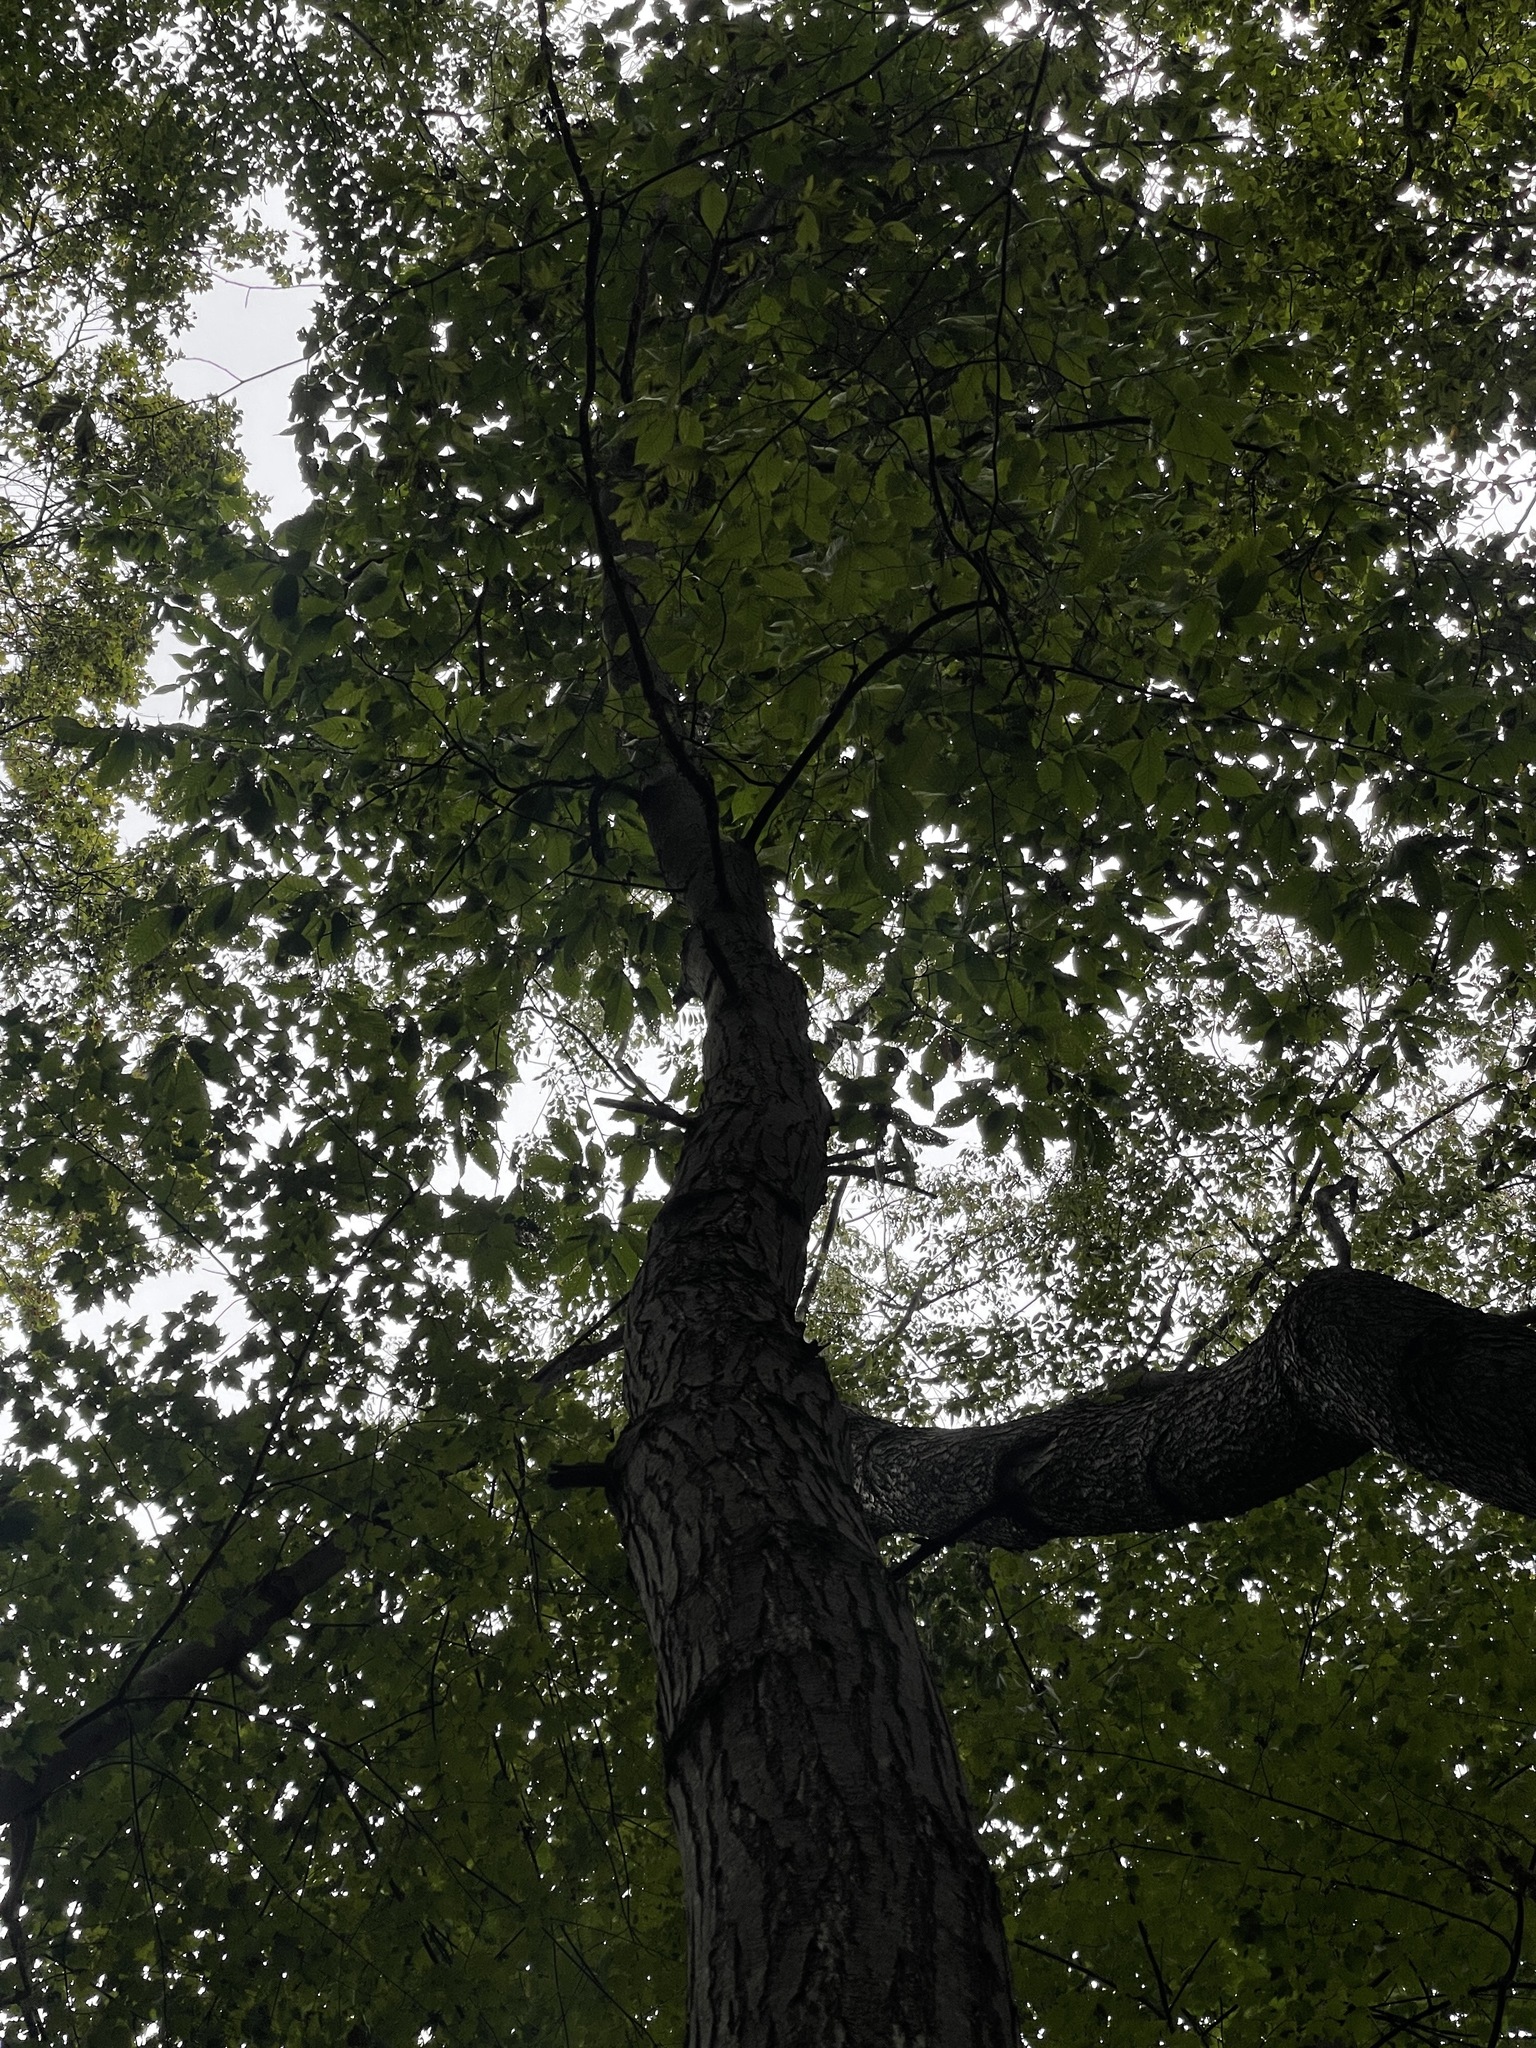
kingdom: Plantae
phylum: Tracheophyta
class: Magnoliopsida
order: Fagales
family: Fagaceae
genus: Castanea
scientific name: Castanea dentata
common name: American chestnut
